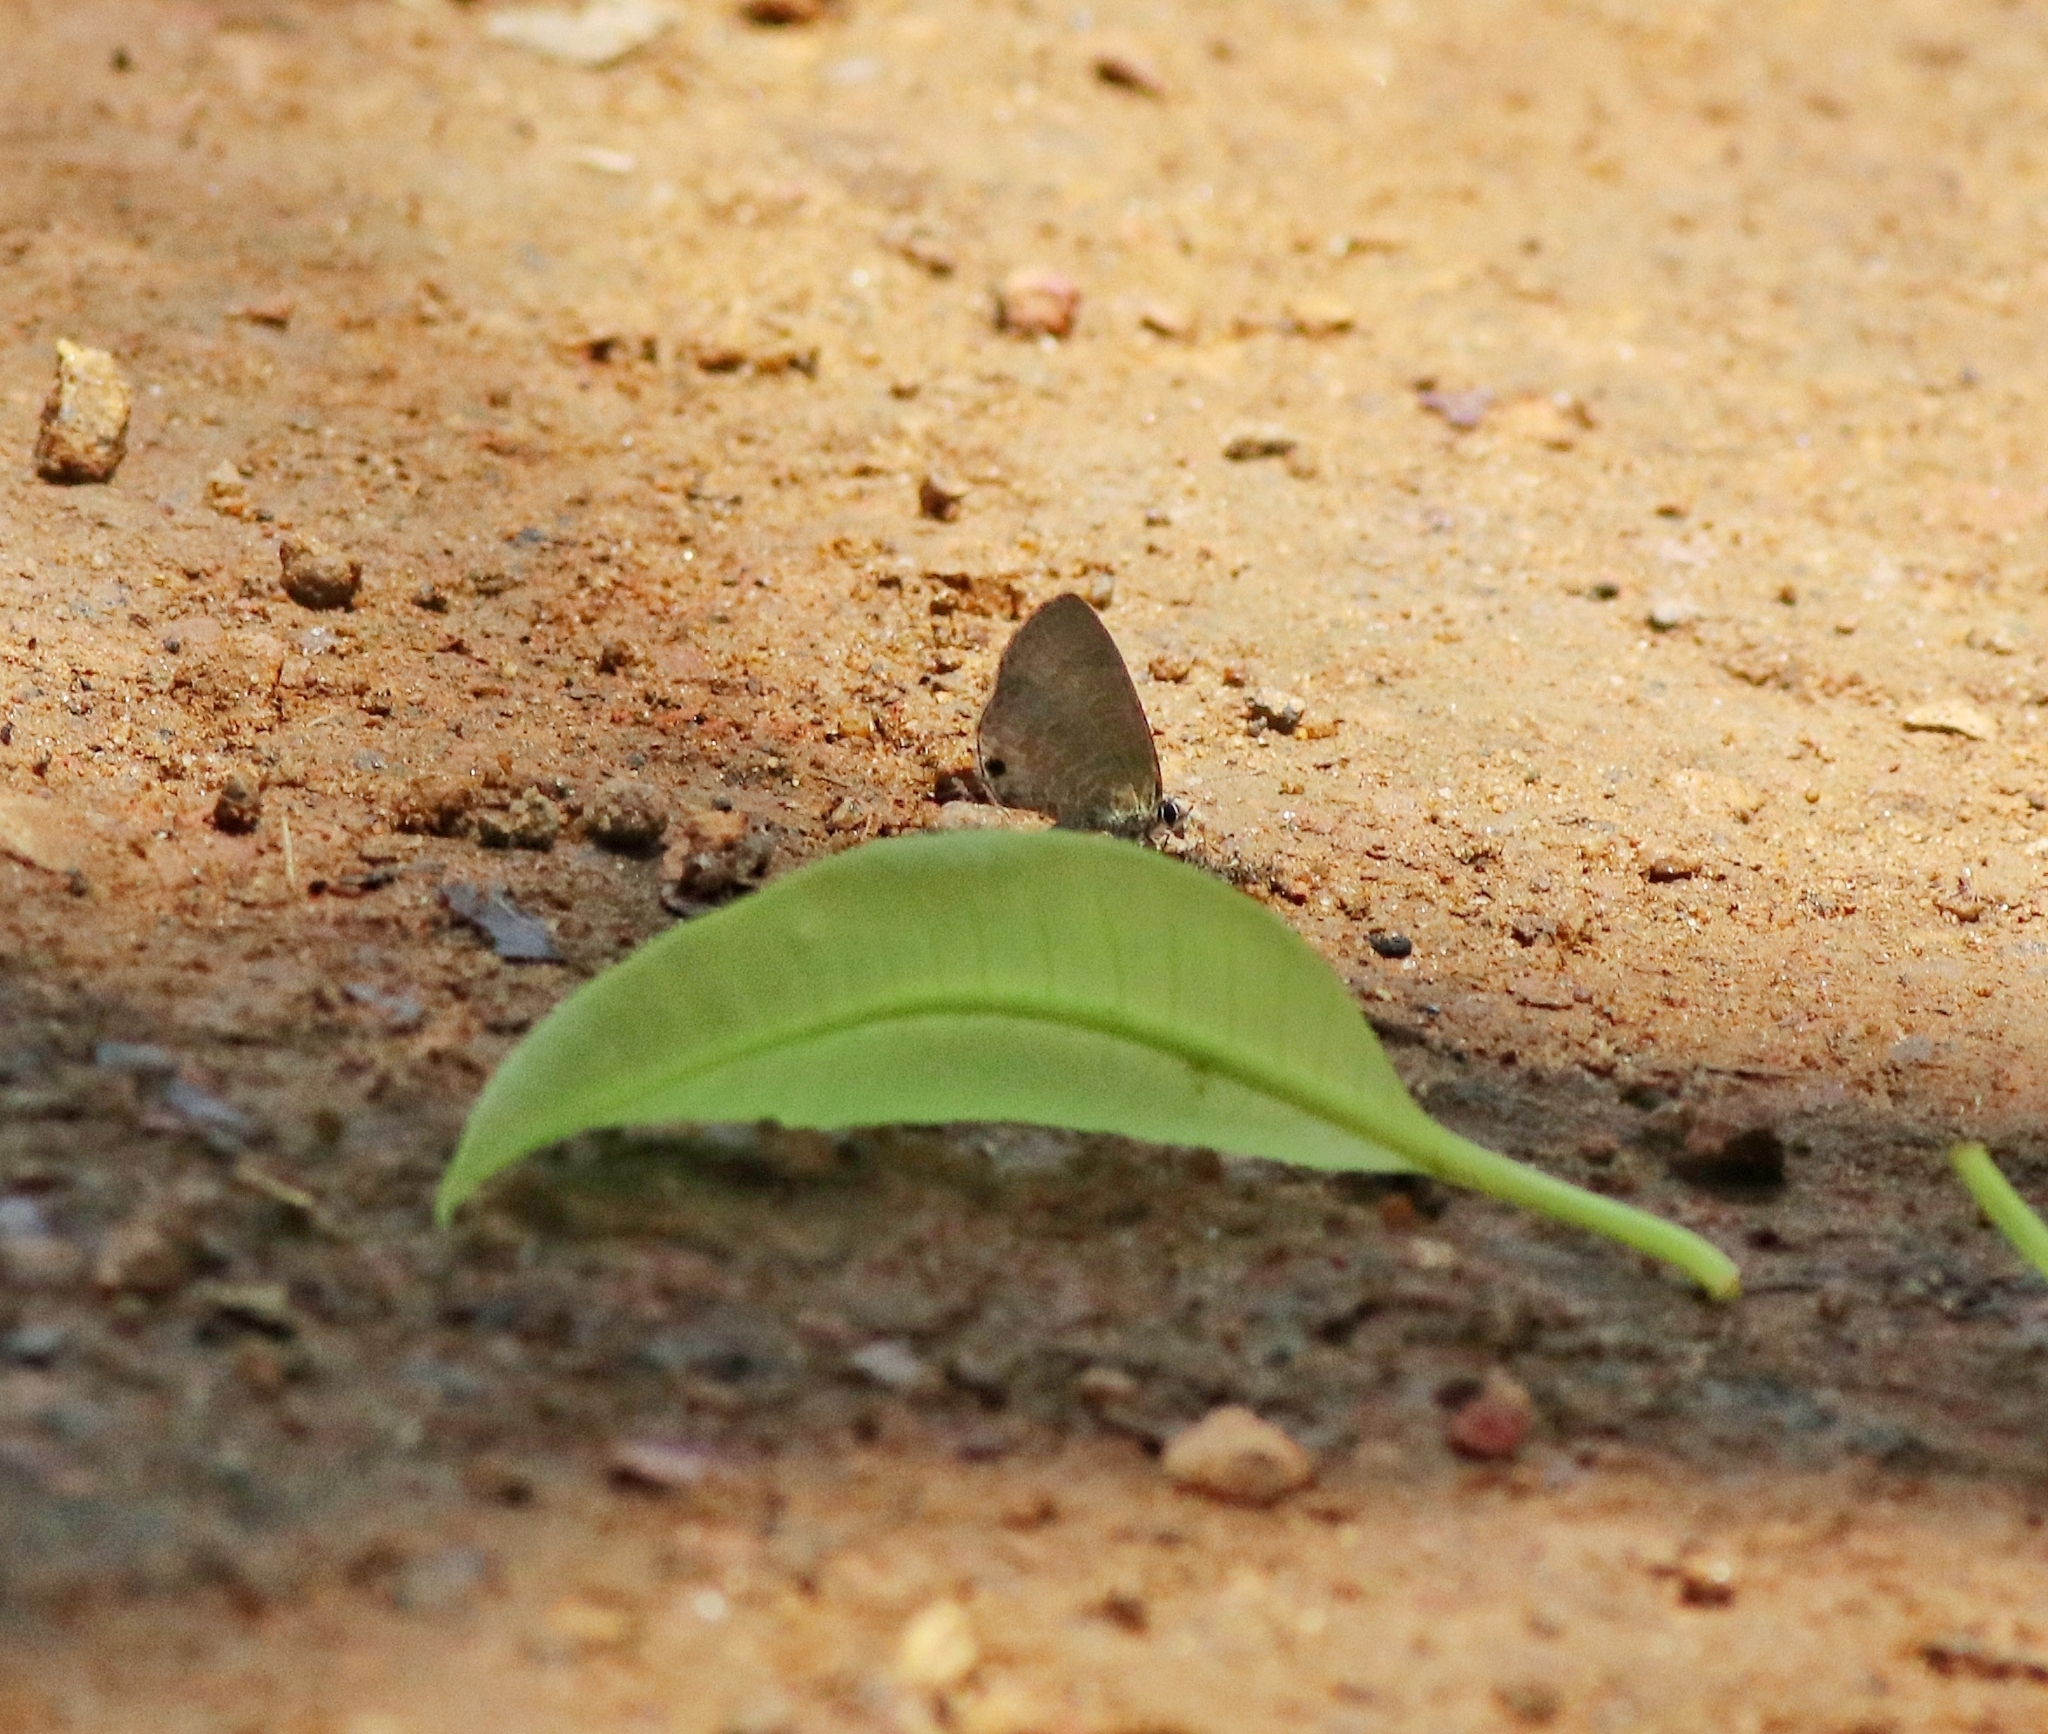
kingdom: Animalia
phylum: Arthropoda
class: Insecta
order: Lepidoptera
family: Lycaenidae
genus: Prosotas
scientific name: Prosotas nora
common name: Common line blue
